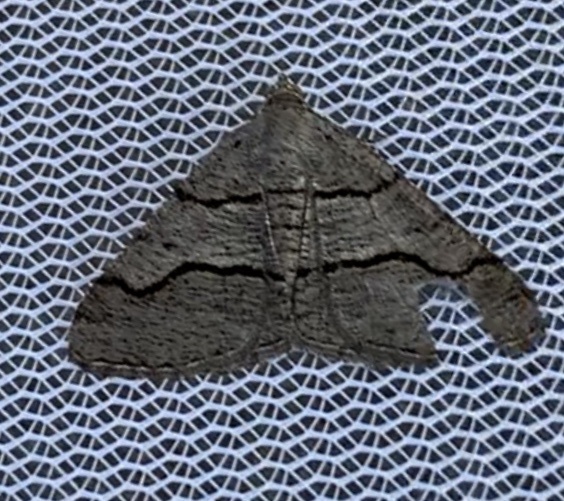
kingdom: Animalia
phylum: Arthropoda
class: Insecta
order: Lepidoptera
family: Geometridae
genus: Digrammia
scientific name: Digrammia continuata
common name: Curve-lined angle
